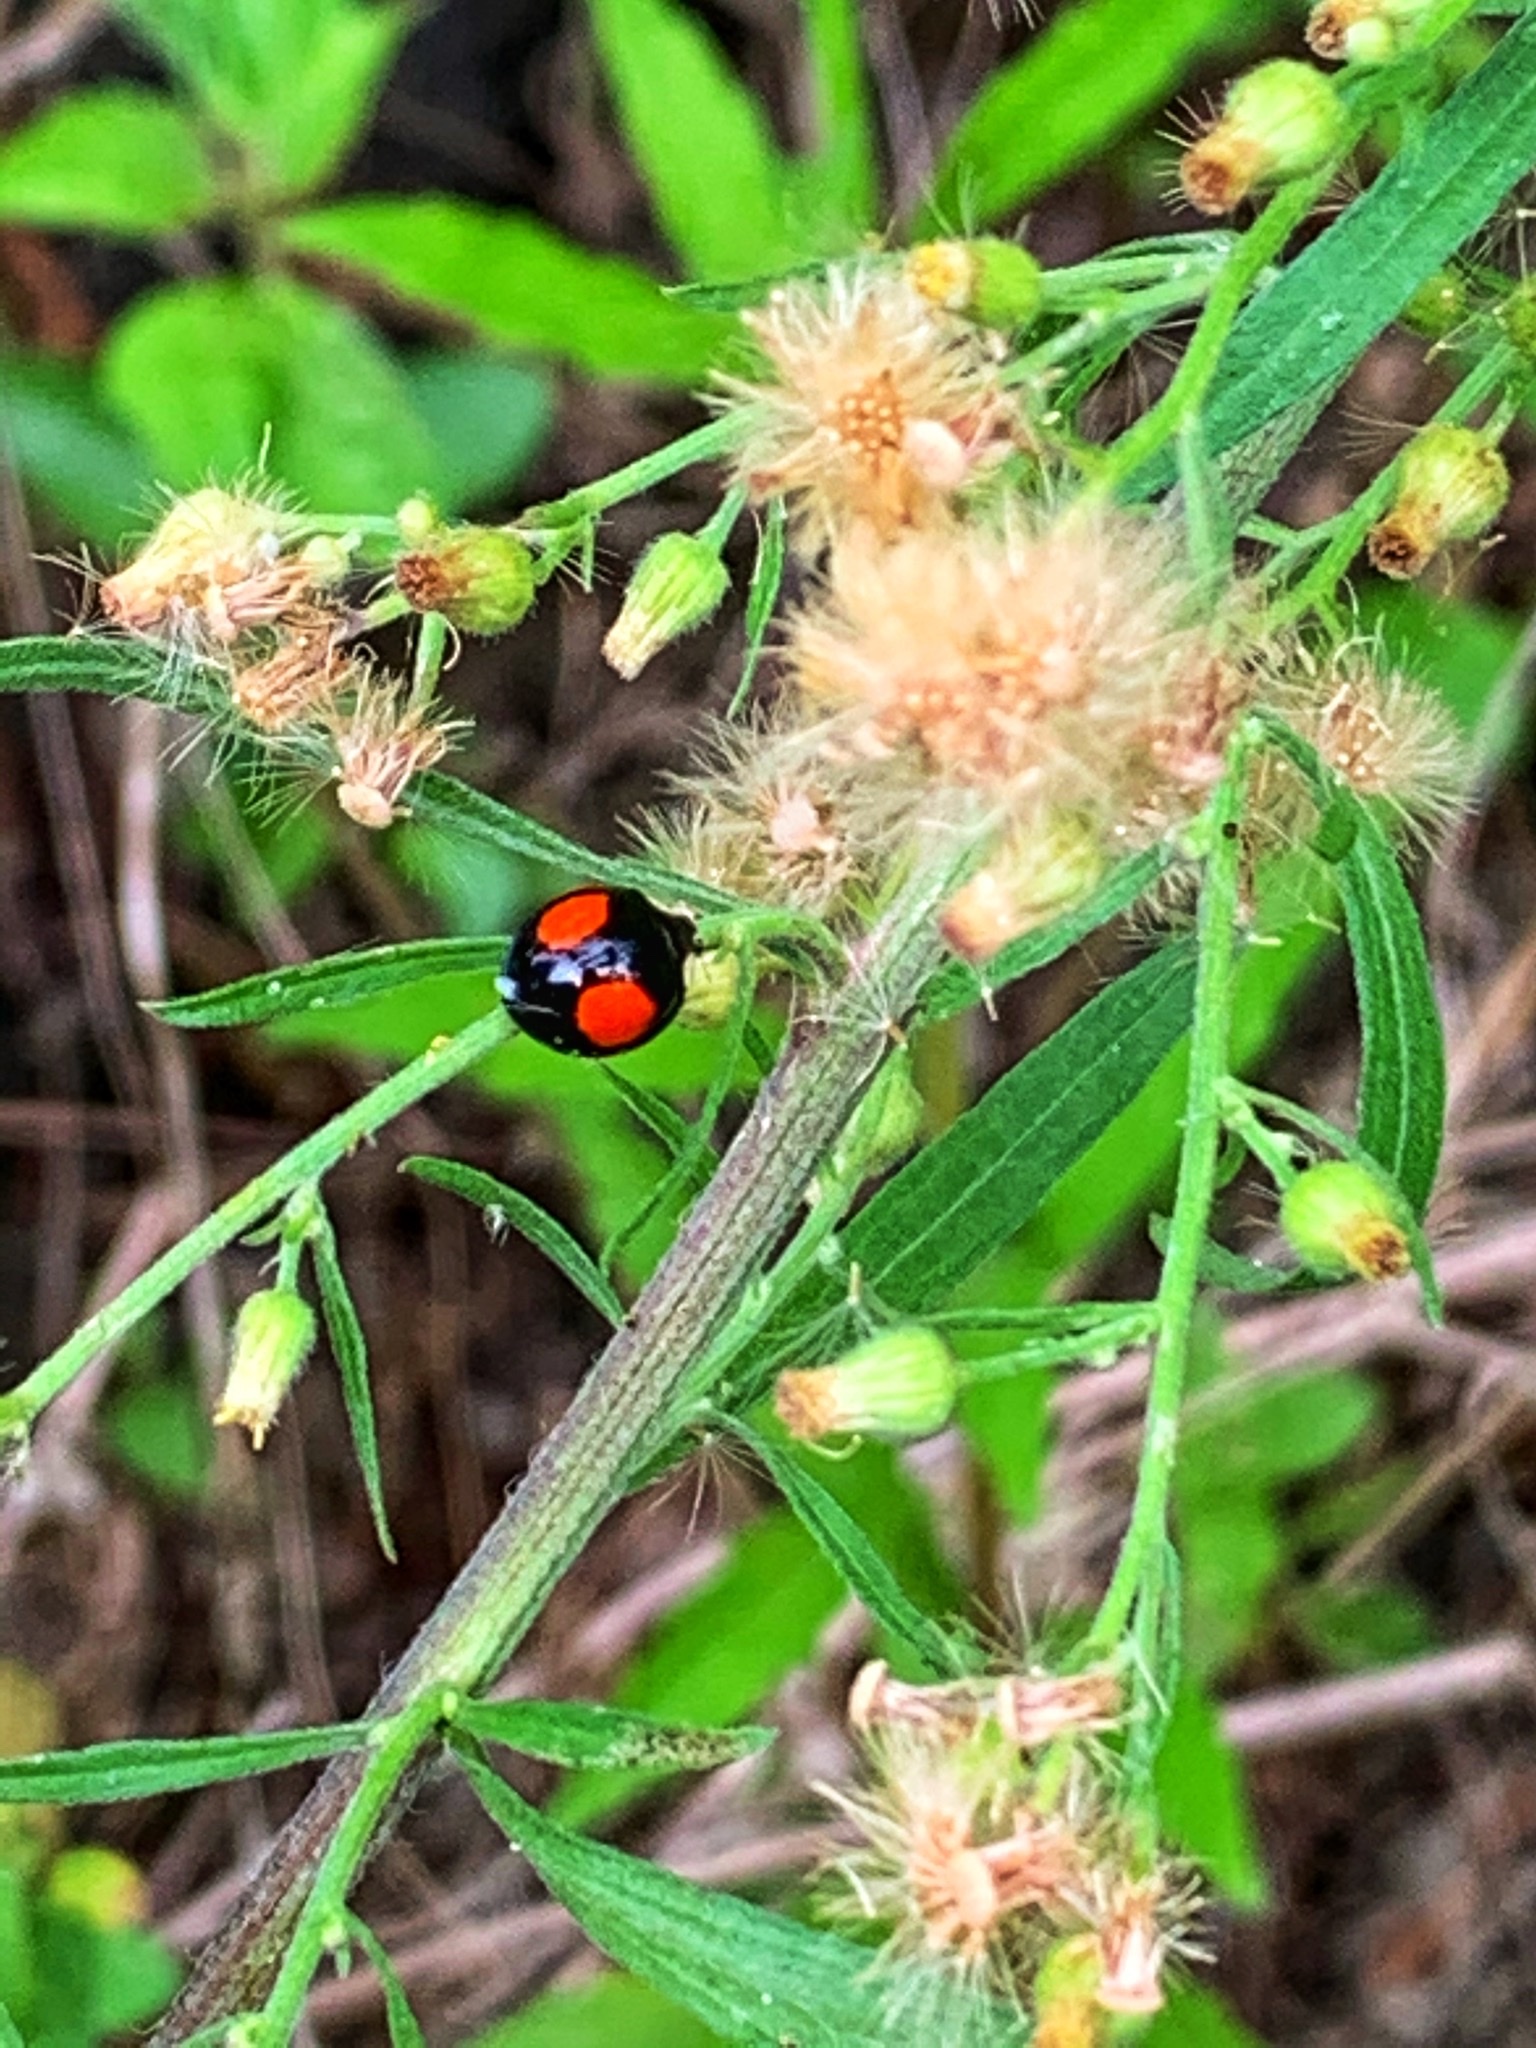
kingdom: Animalia
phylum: Arthropoda
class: Insecta
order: Coleoptera
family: Coccinellidae
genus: Coelophora
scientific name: Coelophora saucia
